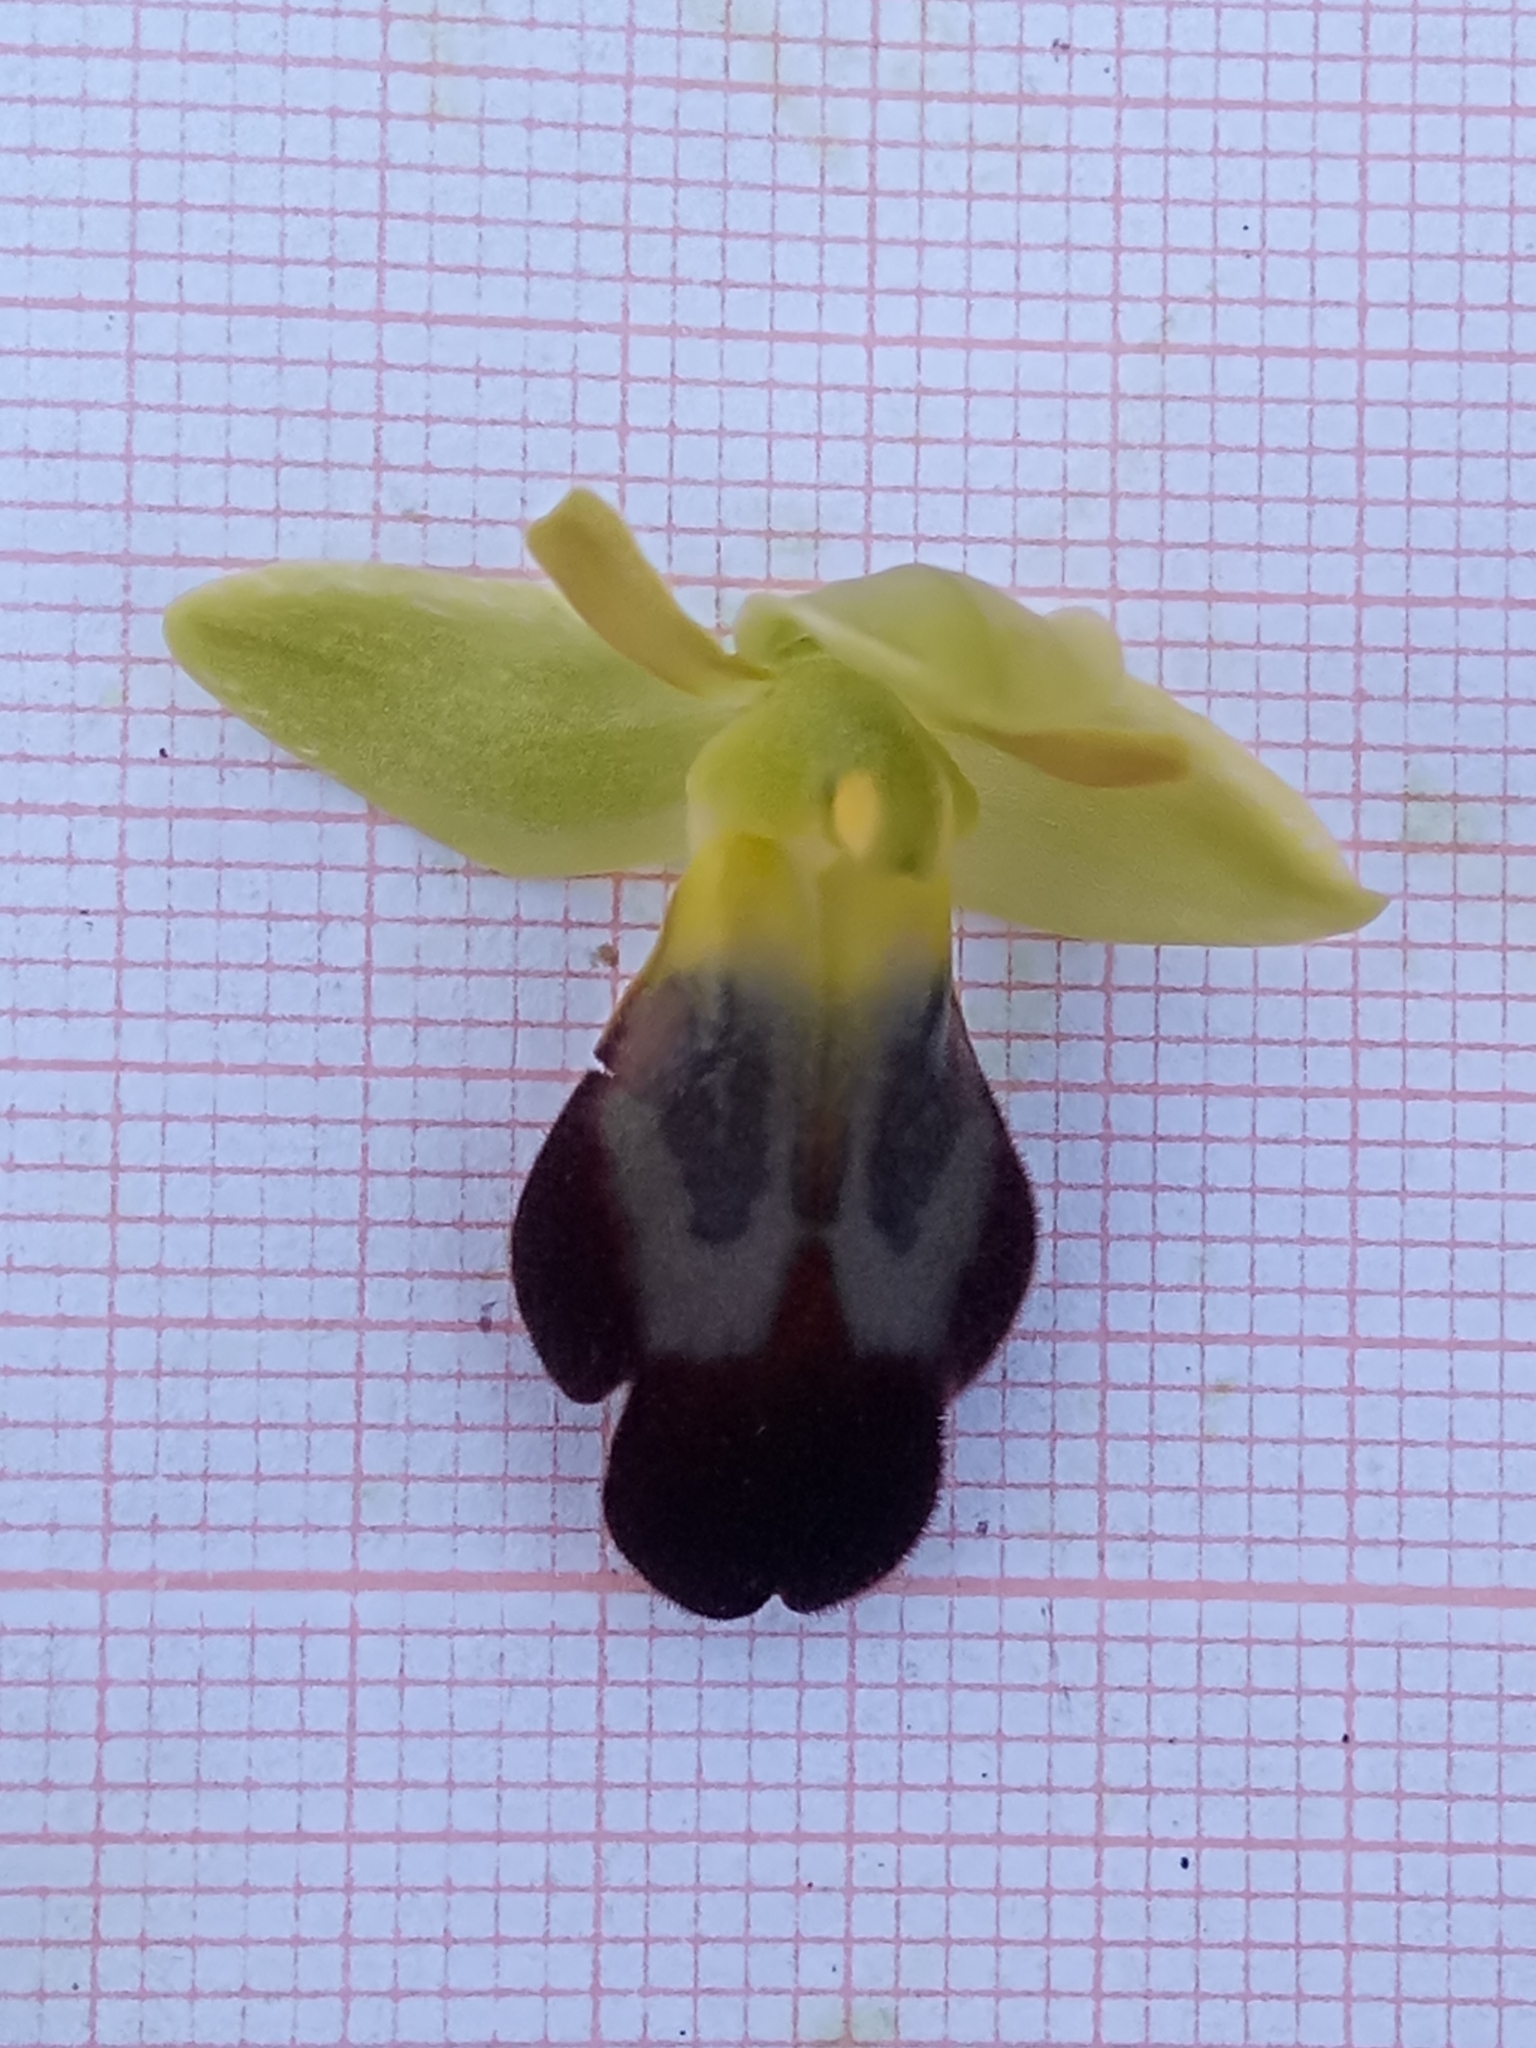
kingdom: Plantae
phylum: Tracheophyta
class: Liliopsida
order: Asparagales
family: Orchidaceae
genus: Ophrys
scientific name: Ophrys fusca
